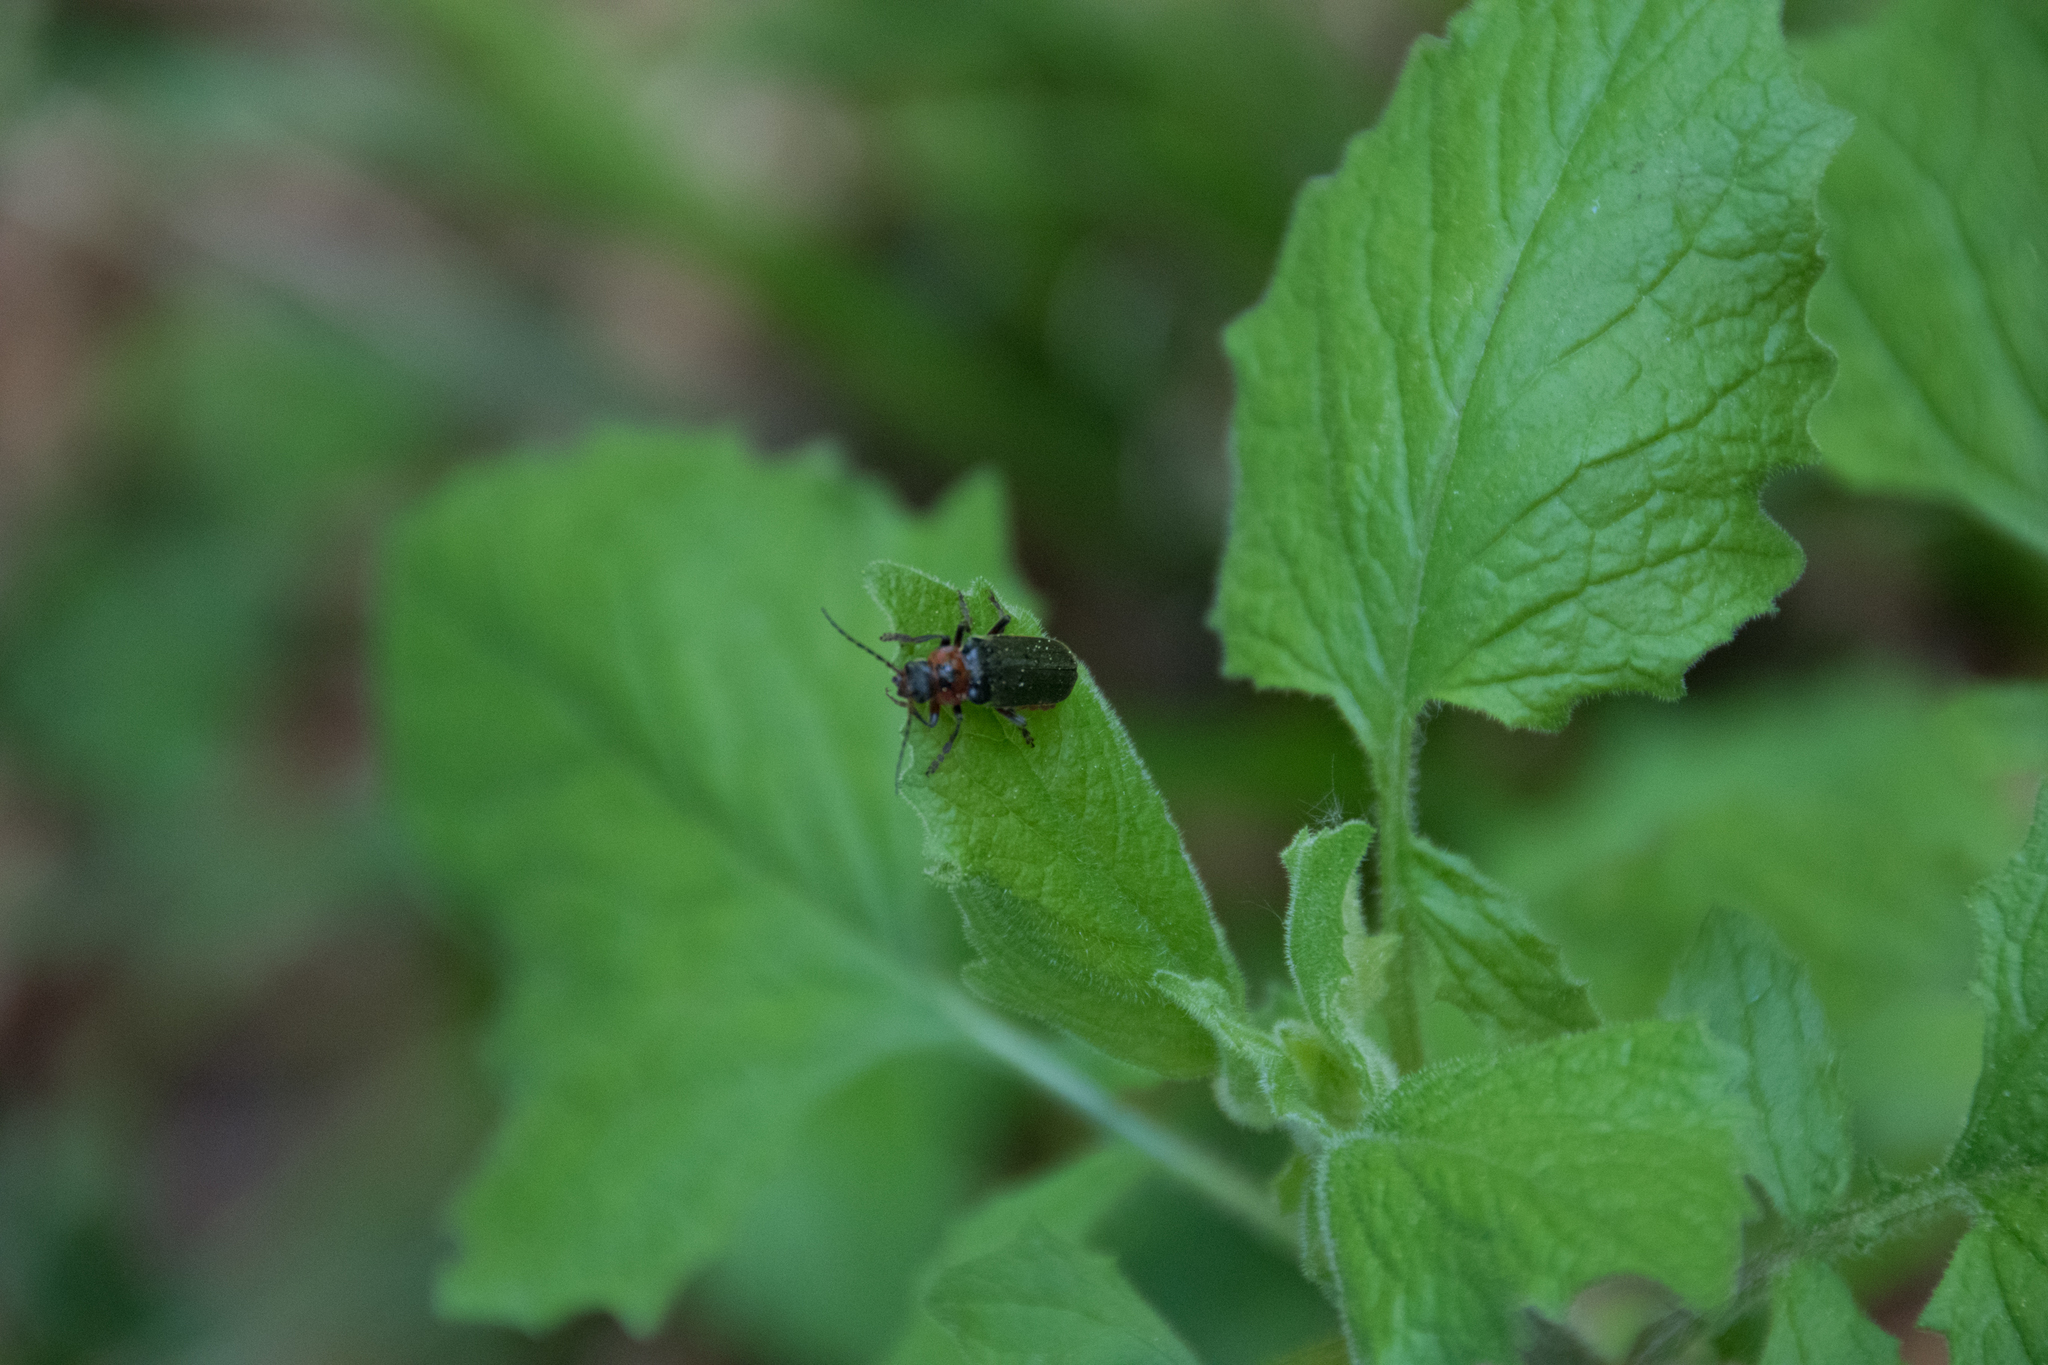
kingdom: Animalia
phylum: Arthropoda
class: Insecta
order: Coleoptera
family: Cantharidae
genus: Cantharis
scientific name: Cantharis rustica
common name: Soldier beetle
